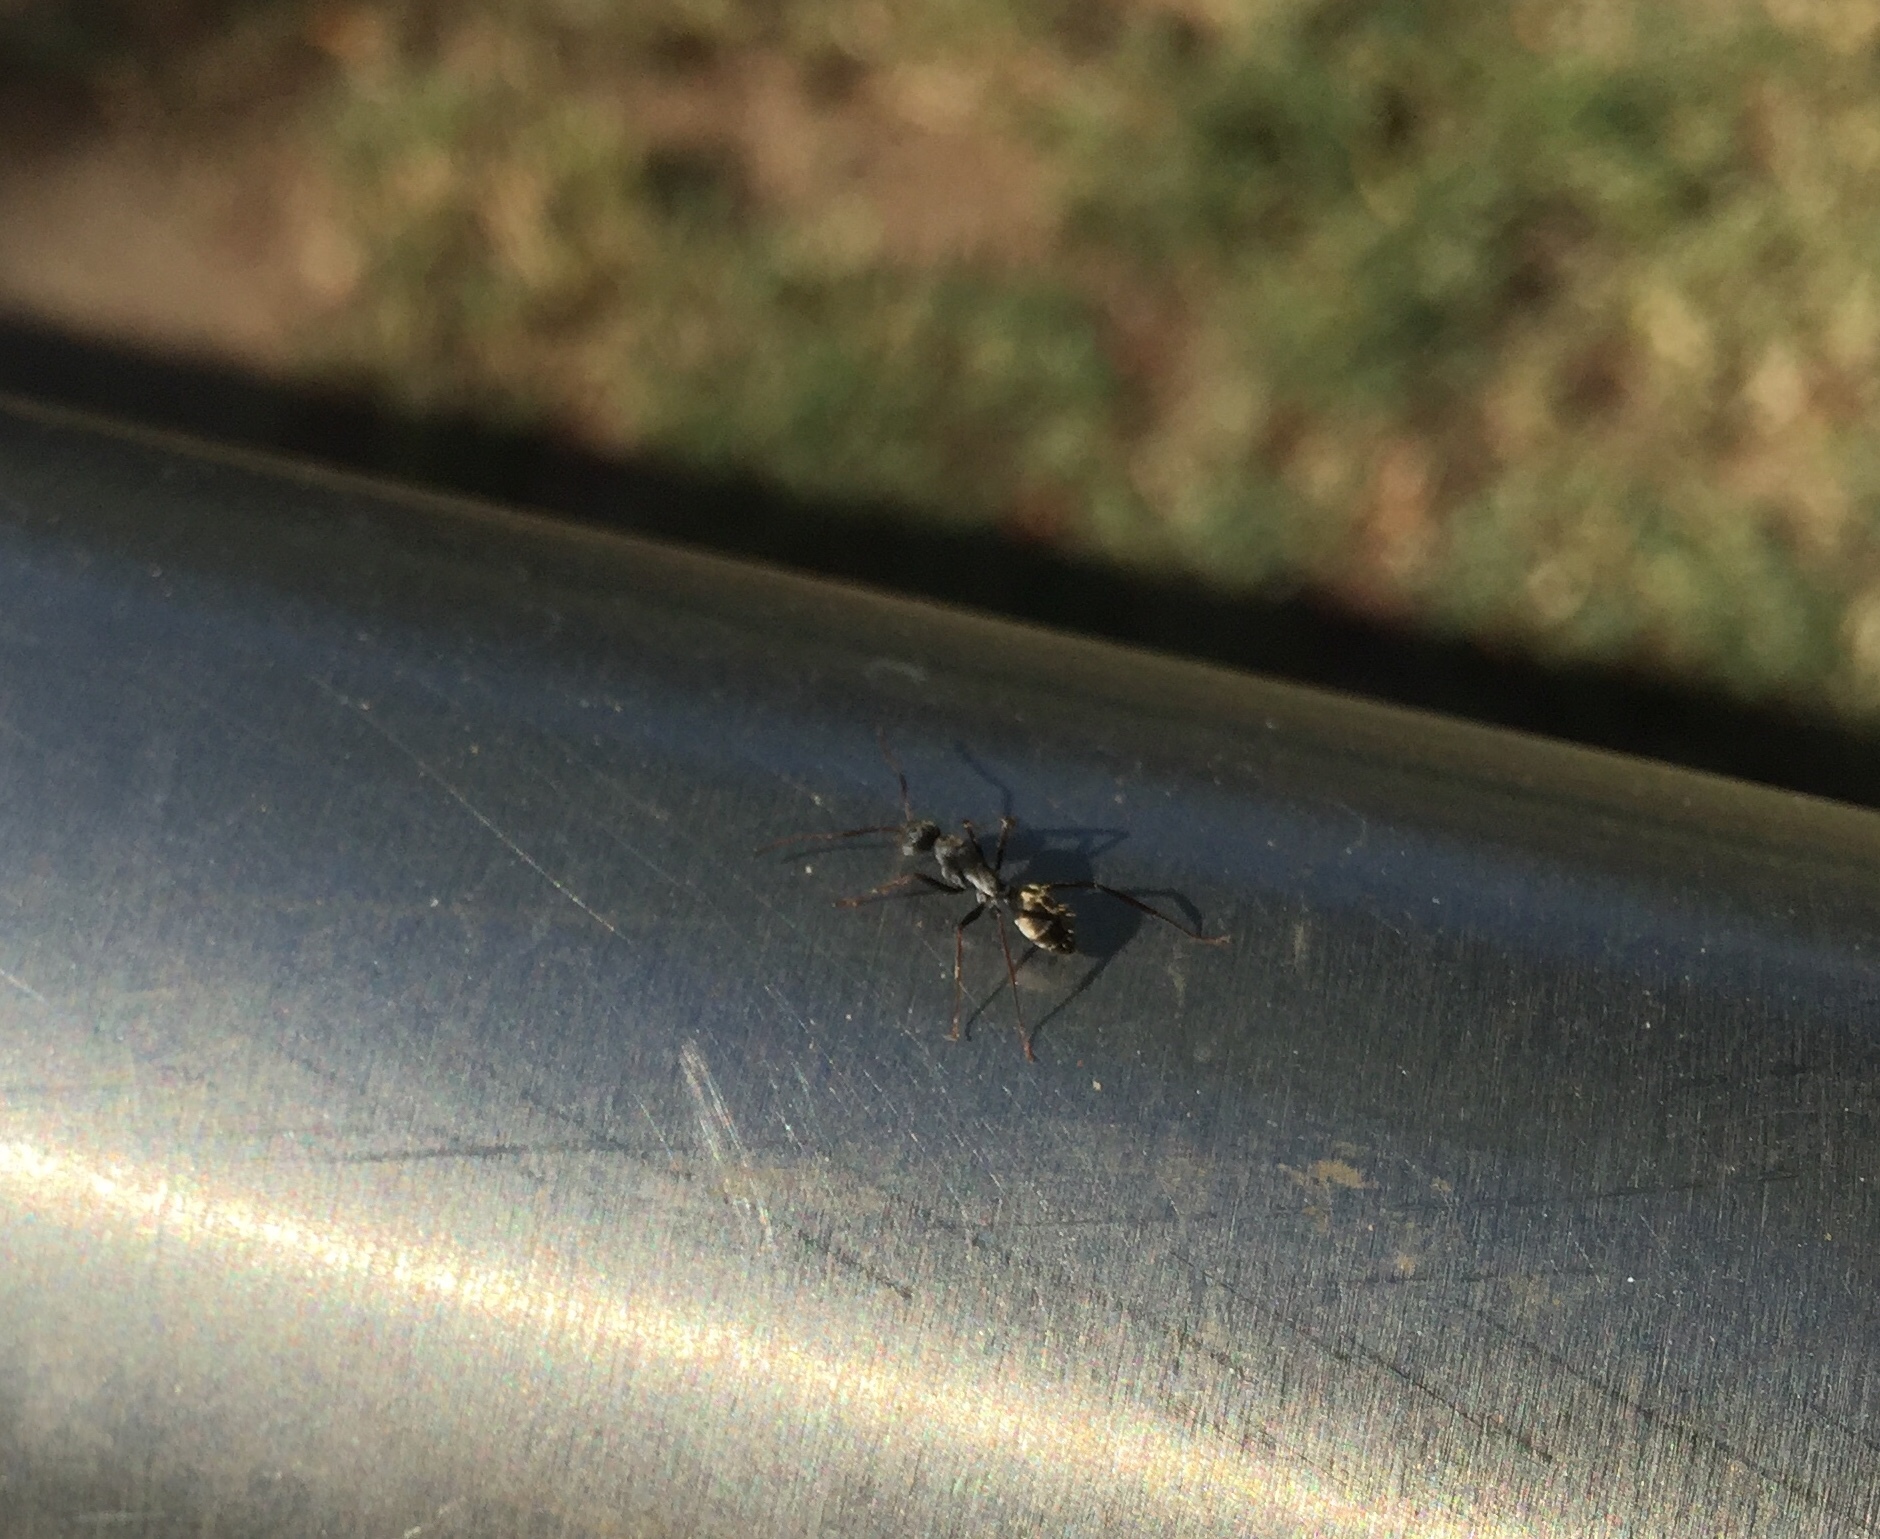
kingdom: Animalia
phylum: Arthropoda
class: Insecta
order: Hymenoptera
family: Formicidae
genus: Camponotus
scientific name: Camponotus cinctellus
